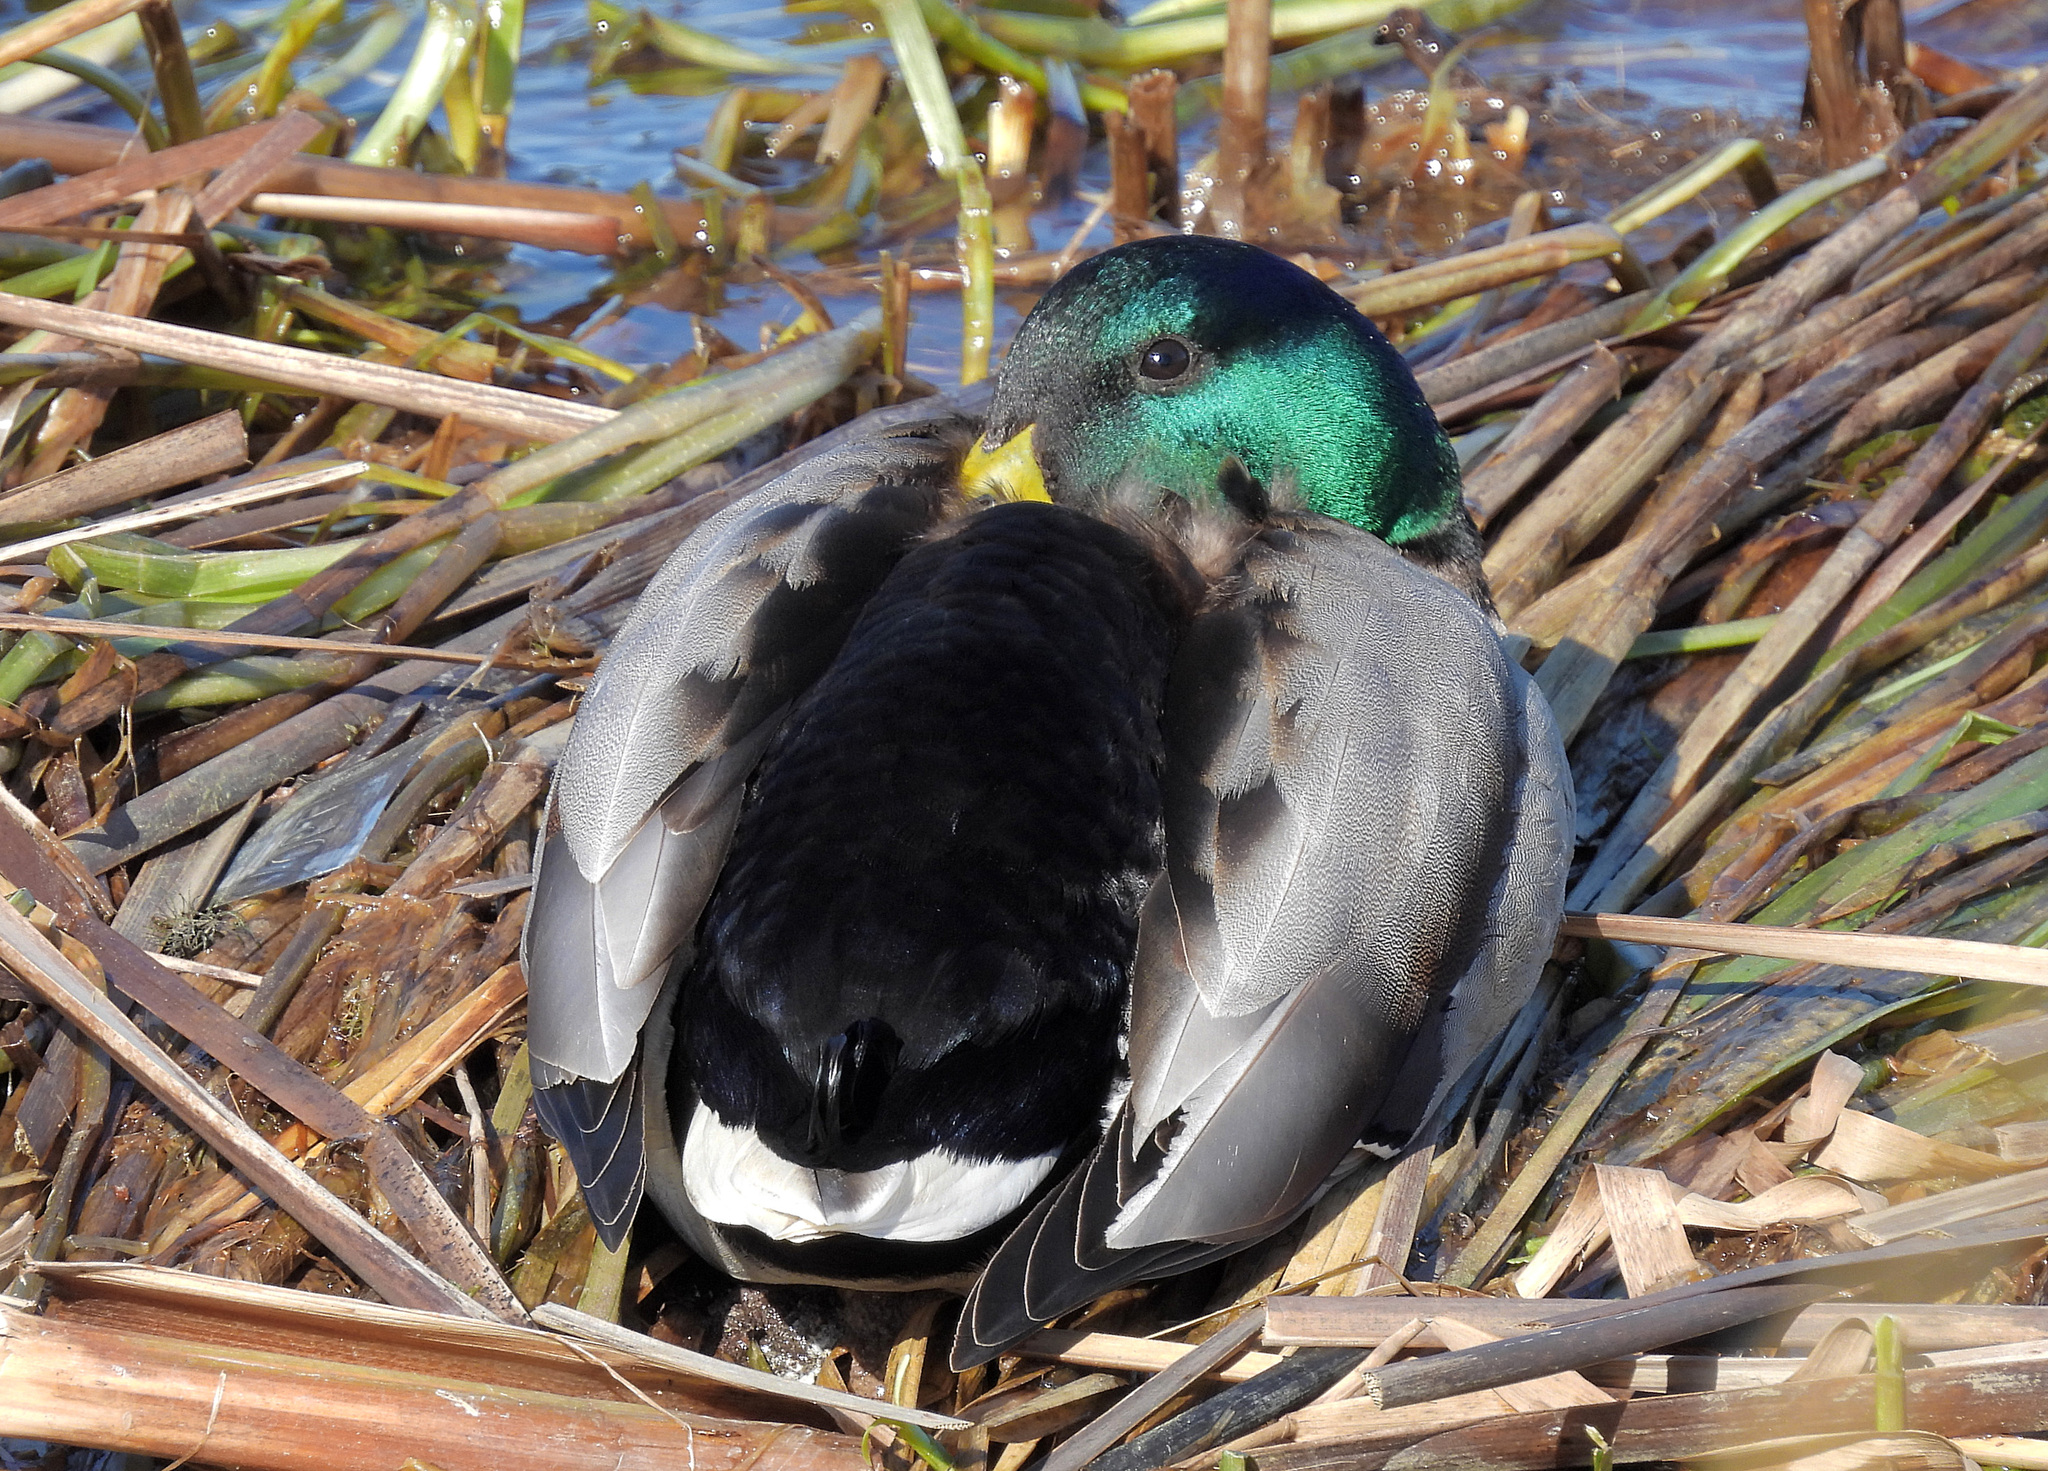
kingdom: Animalia
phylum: Chordata
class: Aves
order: Anseriformes
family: Anatidae
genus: Anas
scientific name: Anas platyrhynchos
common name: Mallard
